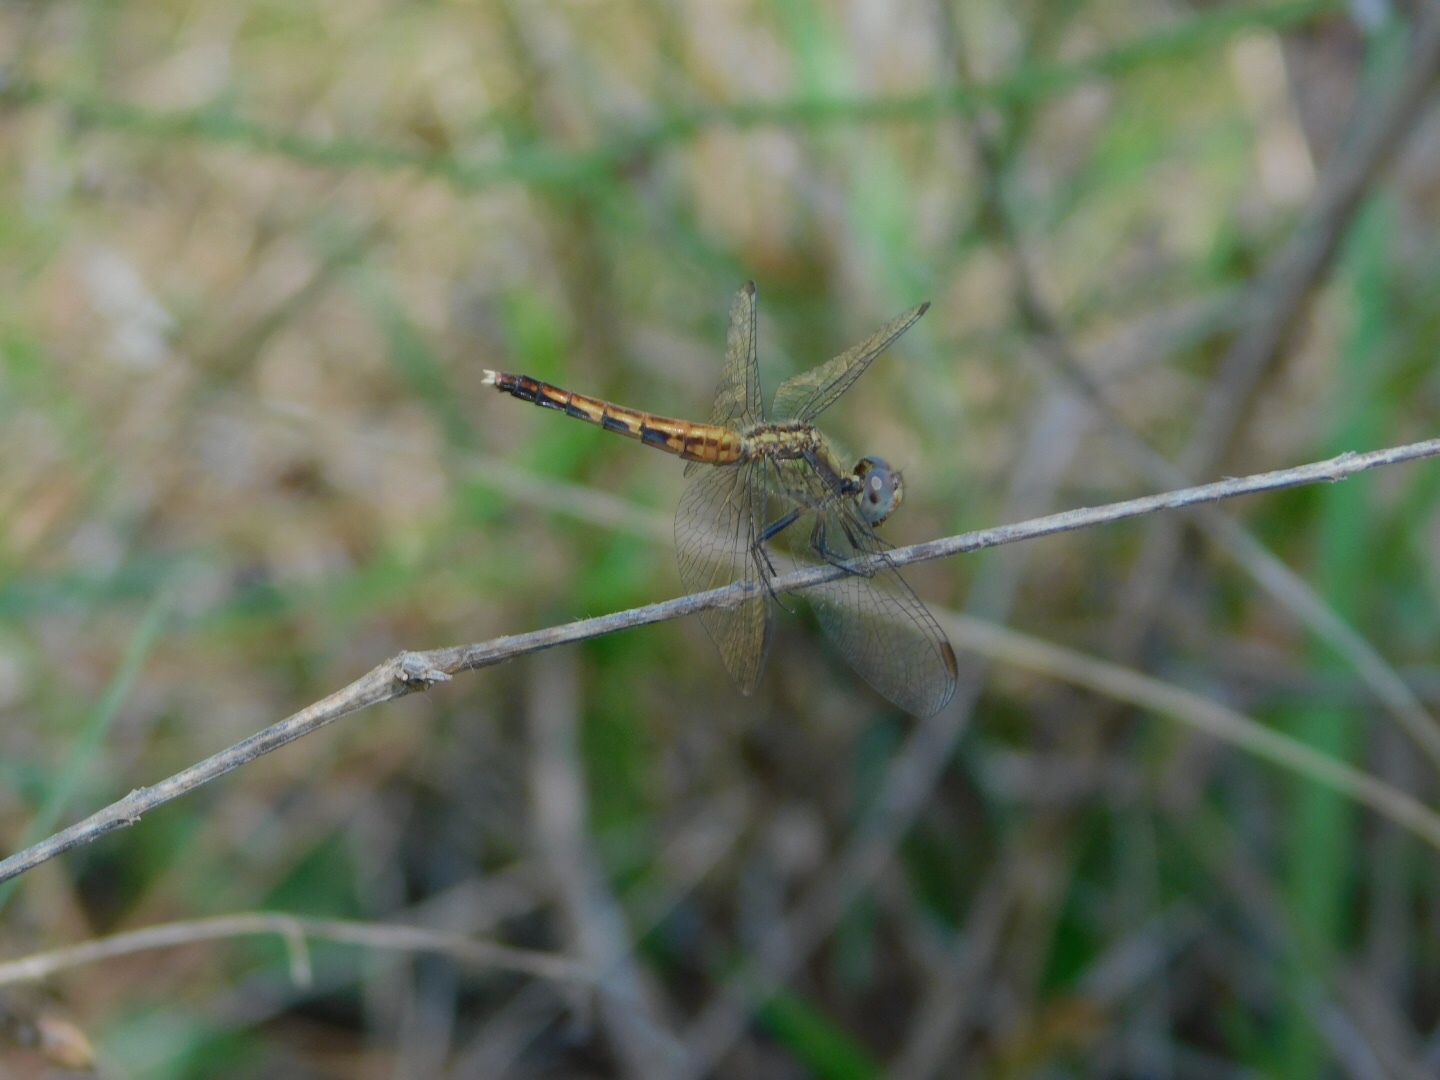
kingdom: Animalia
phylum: Arthropoda
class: Insecta
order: Odonata
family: Libellulidae
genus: Erythrodiplax
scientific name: Erythrodiplax minuscula
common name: Little blue dragonlet
